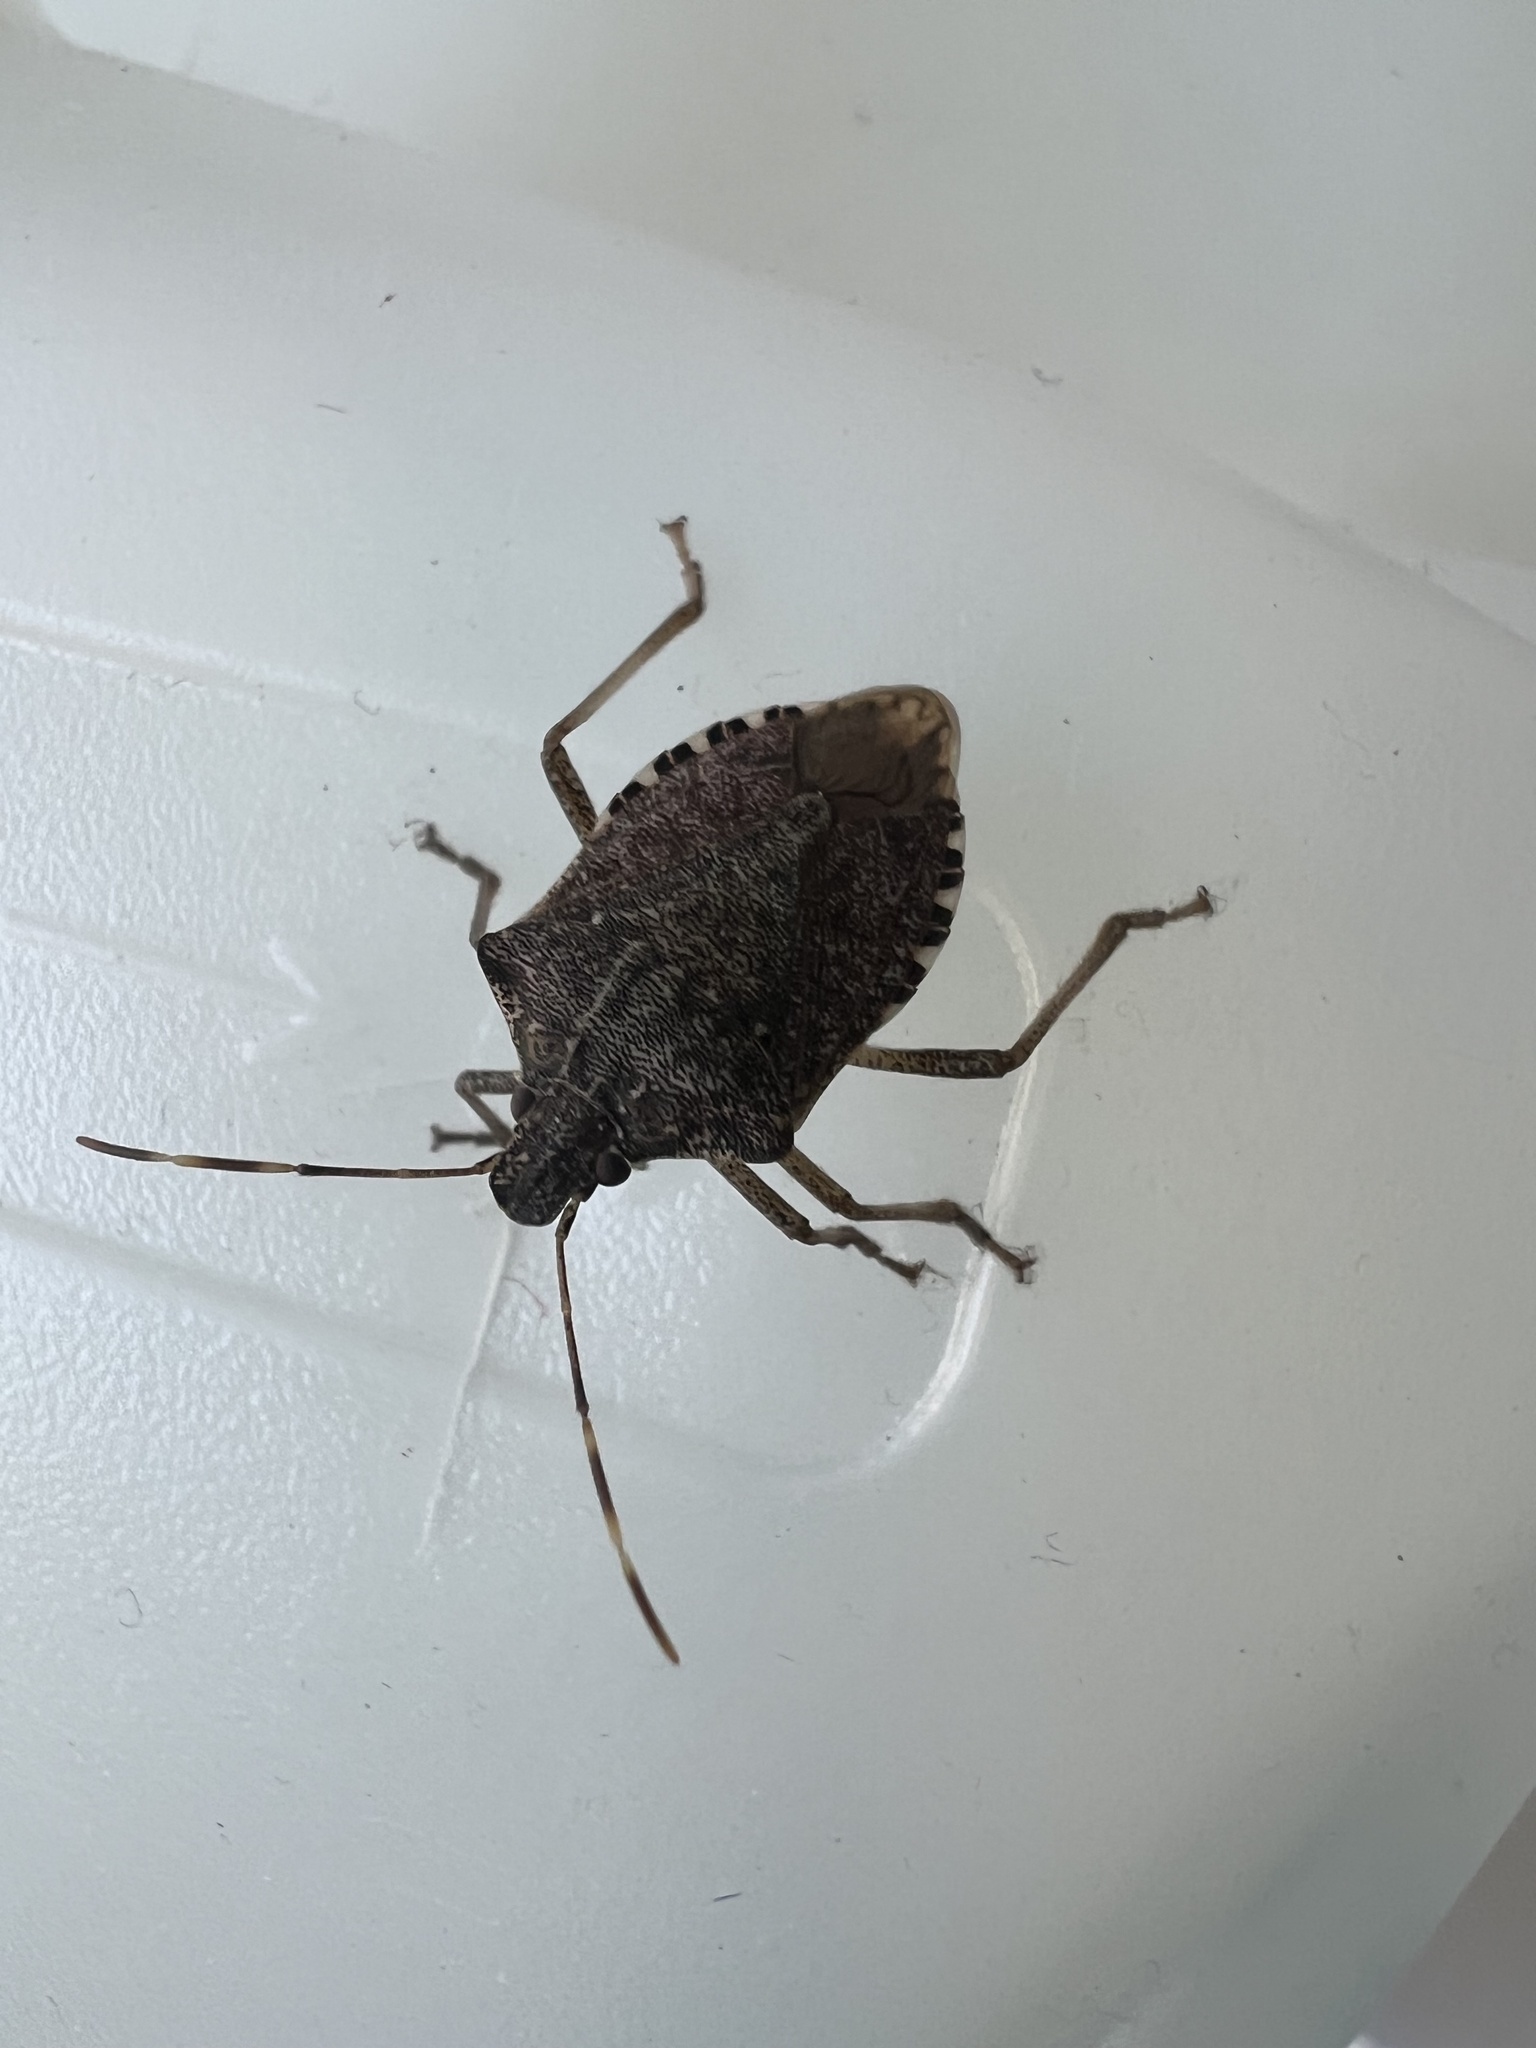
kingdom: Animalia
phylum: Arthropoda
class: Insecta
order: Hemiptera
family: Pentatomidae
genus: Halyomorpha
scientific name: Halyomorpha halys
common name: Brown marmorated stink bug
